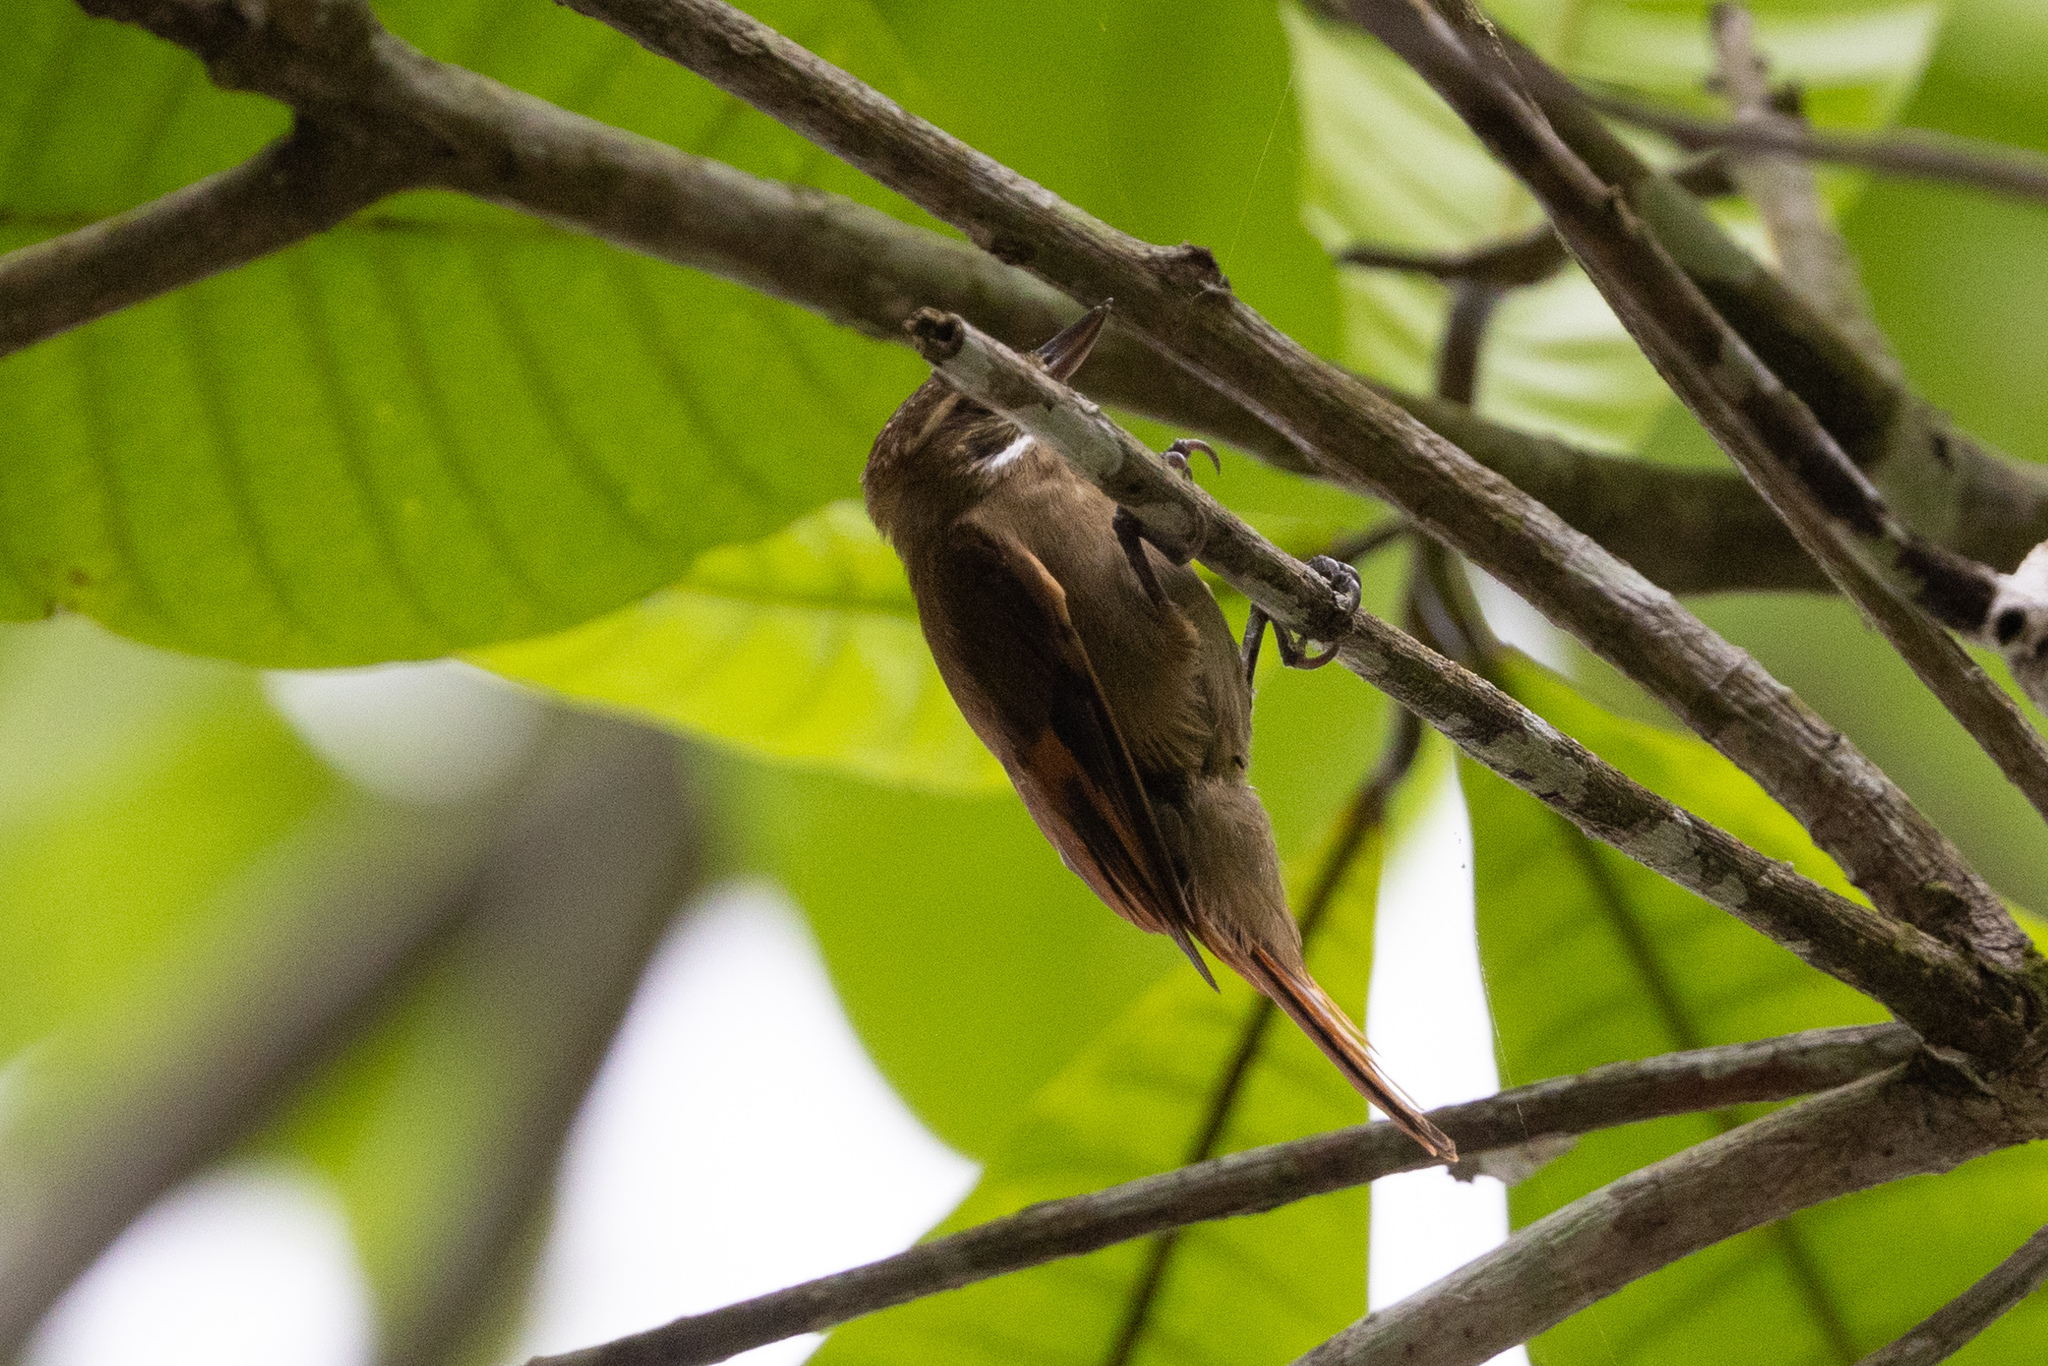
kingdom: Animalia
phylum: Chordata
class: Aves
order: Passeriformes
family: Furnariidae
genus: Xenops
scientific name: Xenops minutus
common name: Plain xenops
